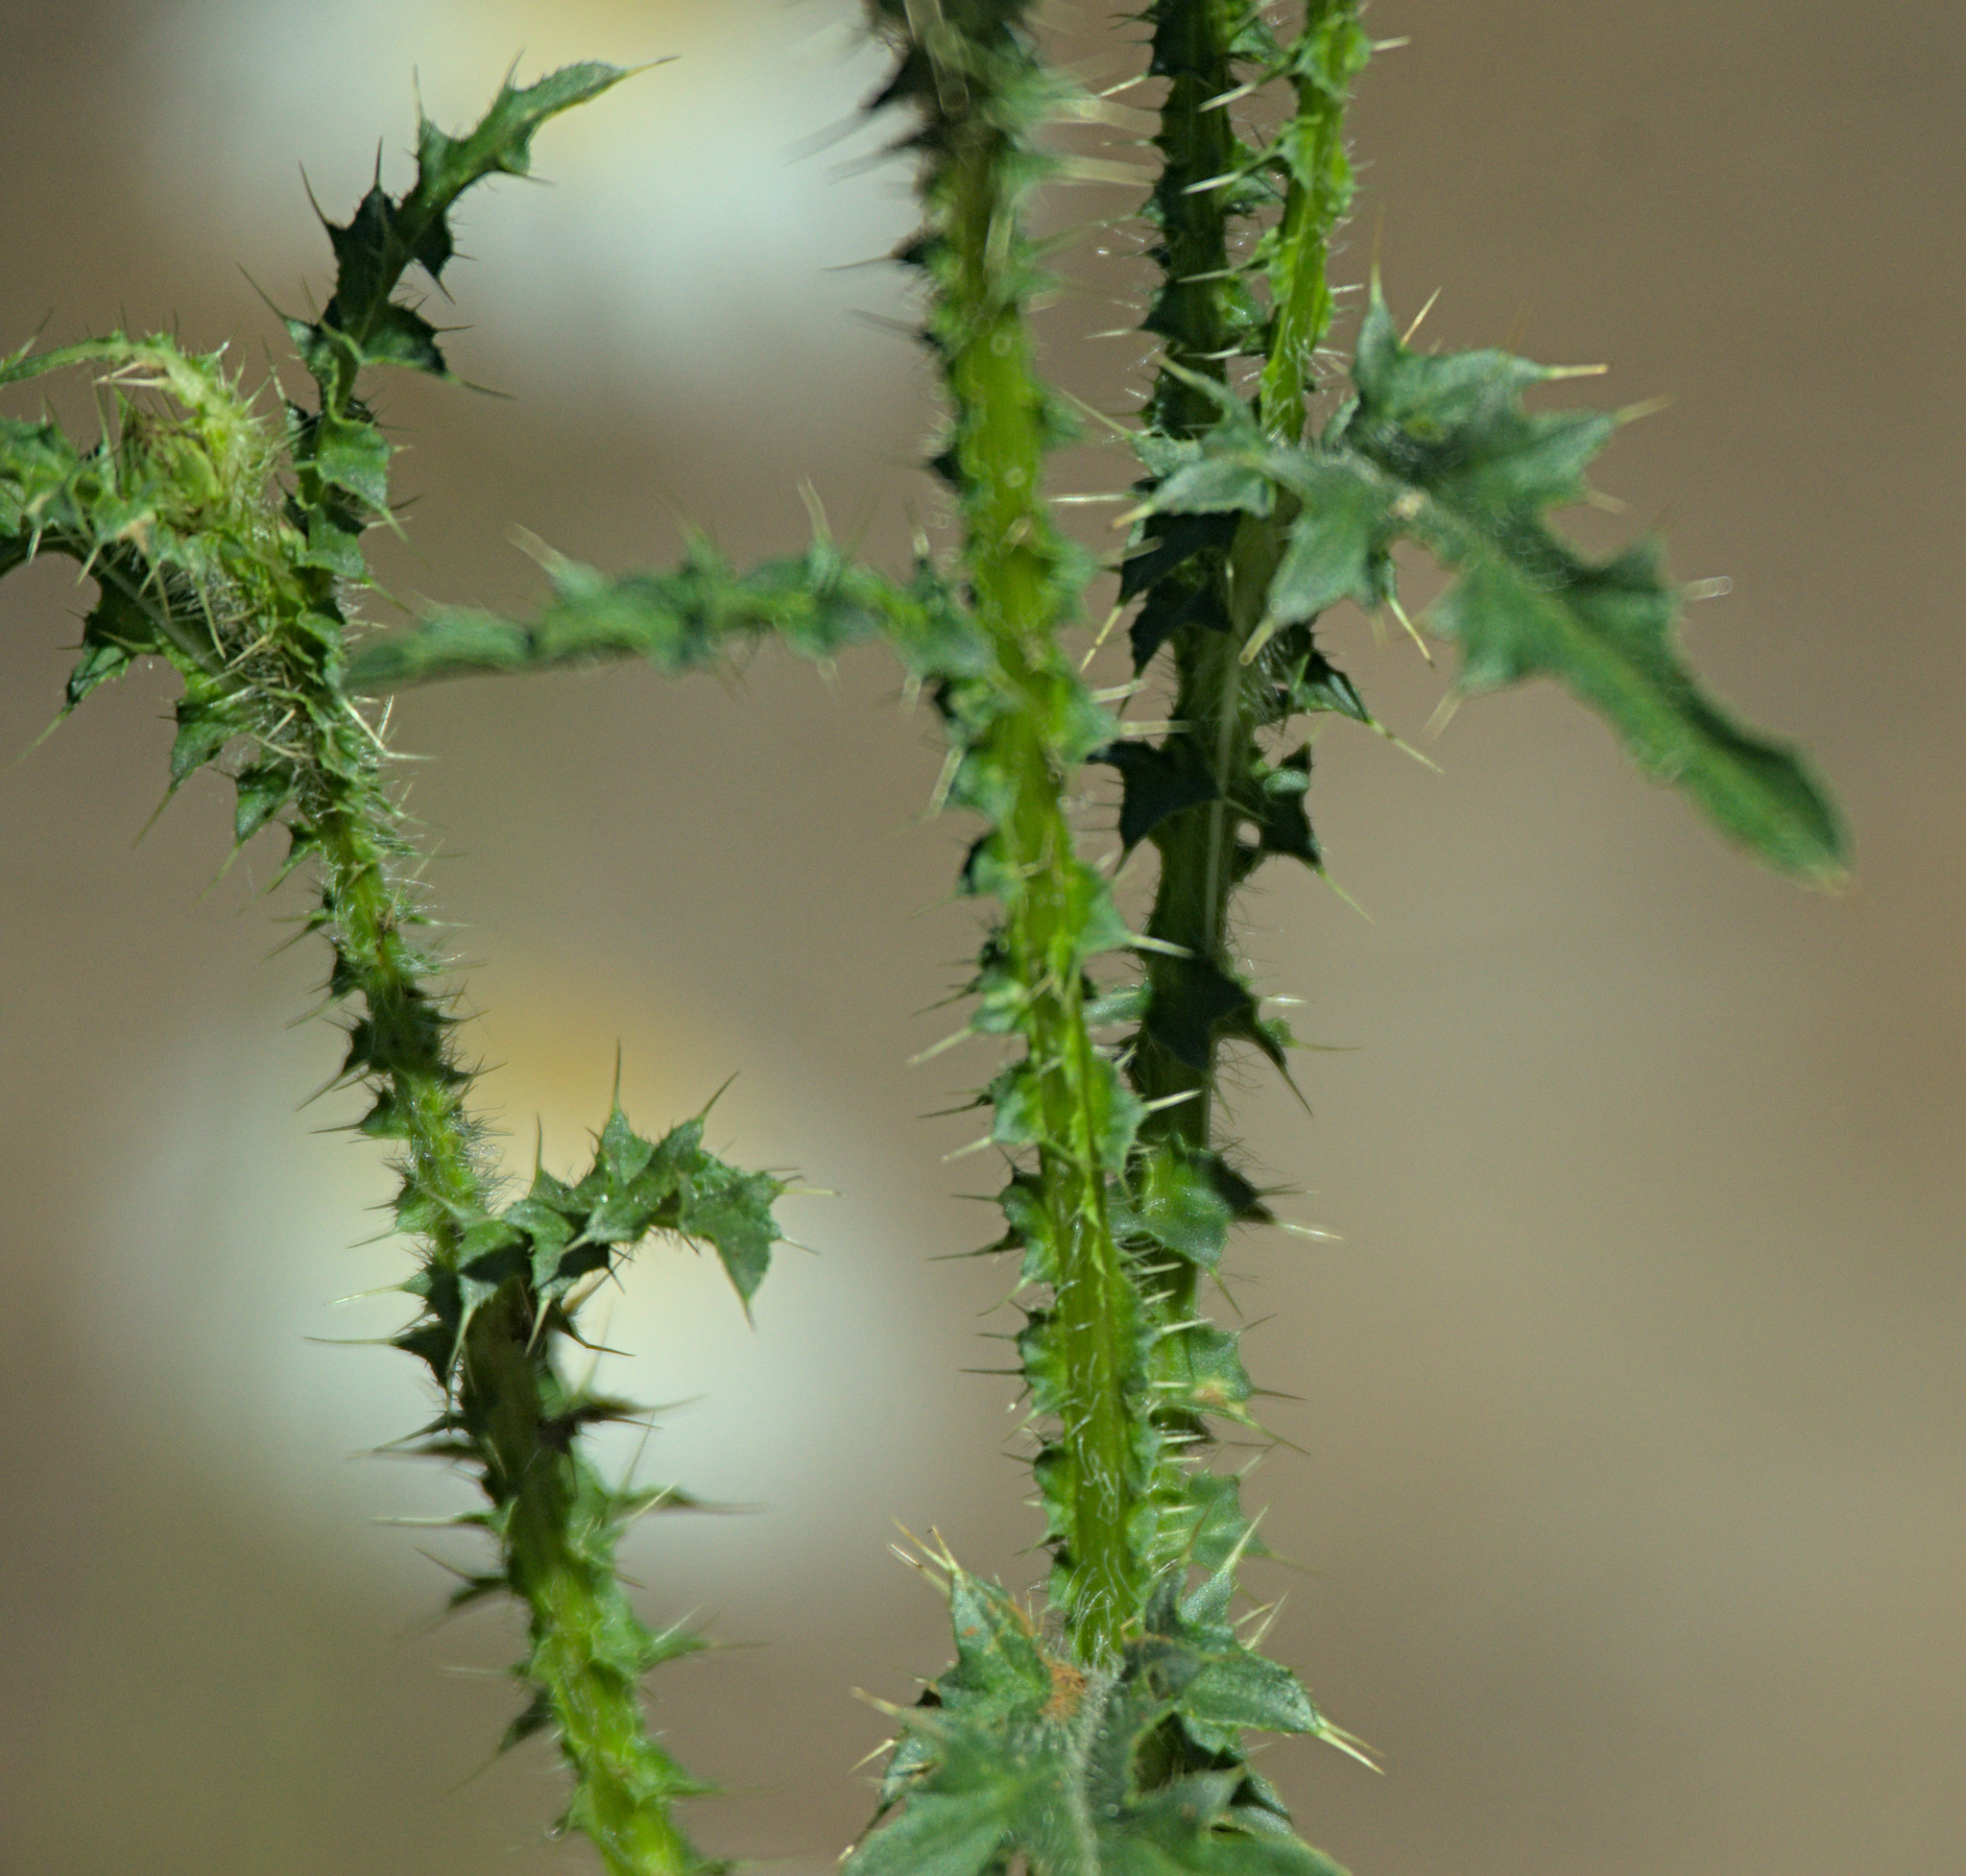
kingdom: Plantae
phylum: Tracheophyta
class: Magnoliopsida
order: Asterales
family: Asteraceae
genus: Carduus
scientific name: Carduus acanthoides
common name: Plumeless thistle
